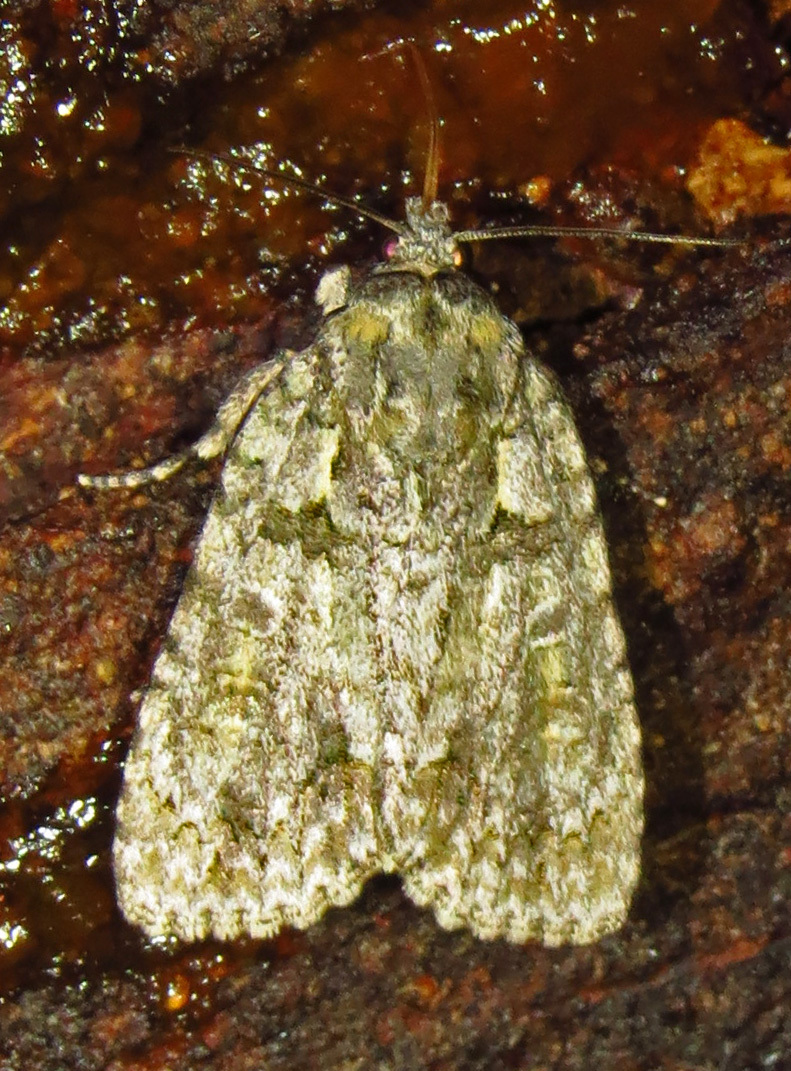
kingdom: Animalia
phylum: Arthropoda
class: Insecta
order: Lepidoptera
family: Noctuidae
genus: Acronicta
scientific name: Acronicta modica
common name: Hesitant dagger
